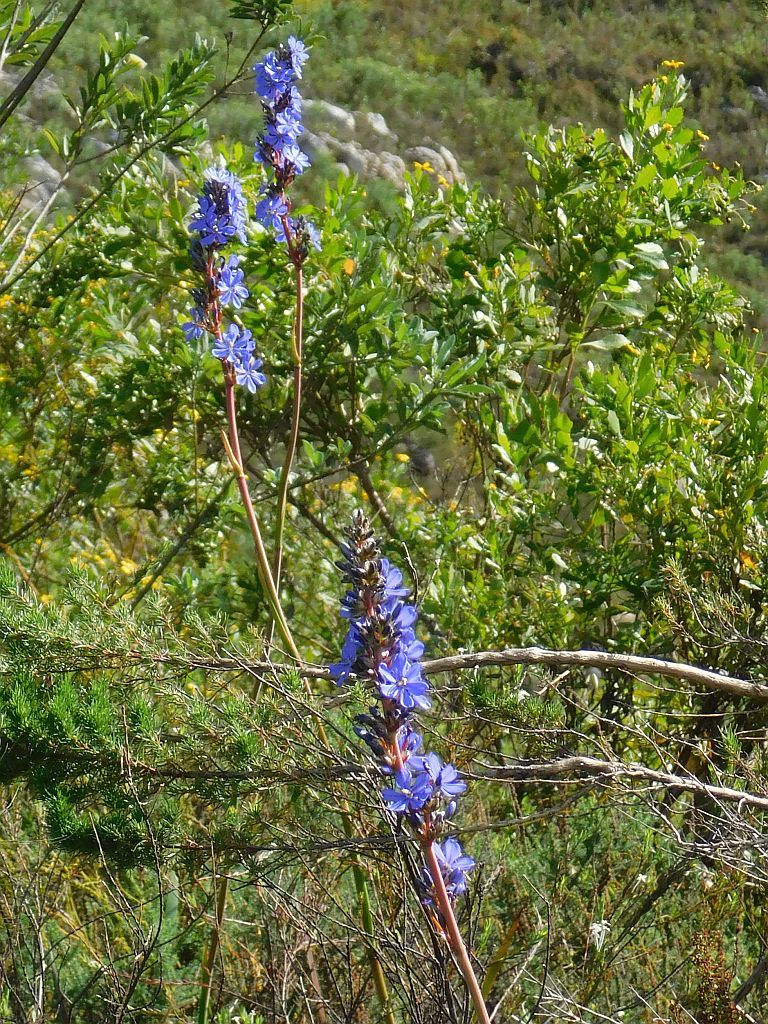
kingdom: Plantae
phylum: Tracheophyta
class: Liliopsida
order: Asparagales
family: Iridaceae
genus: Aristea
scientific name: Aristea capitata
